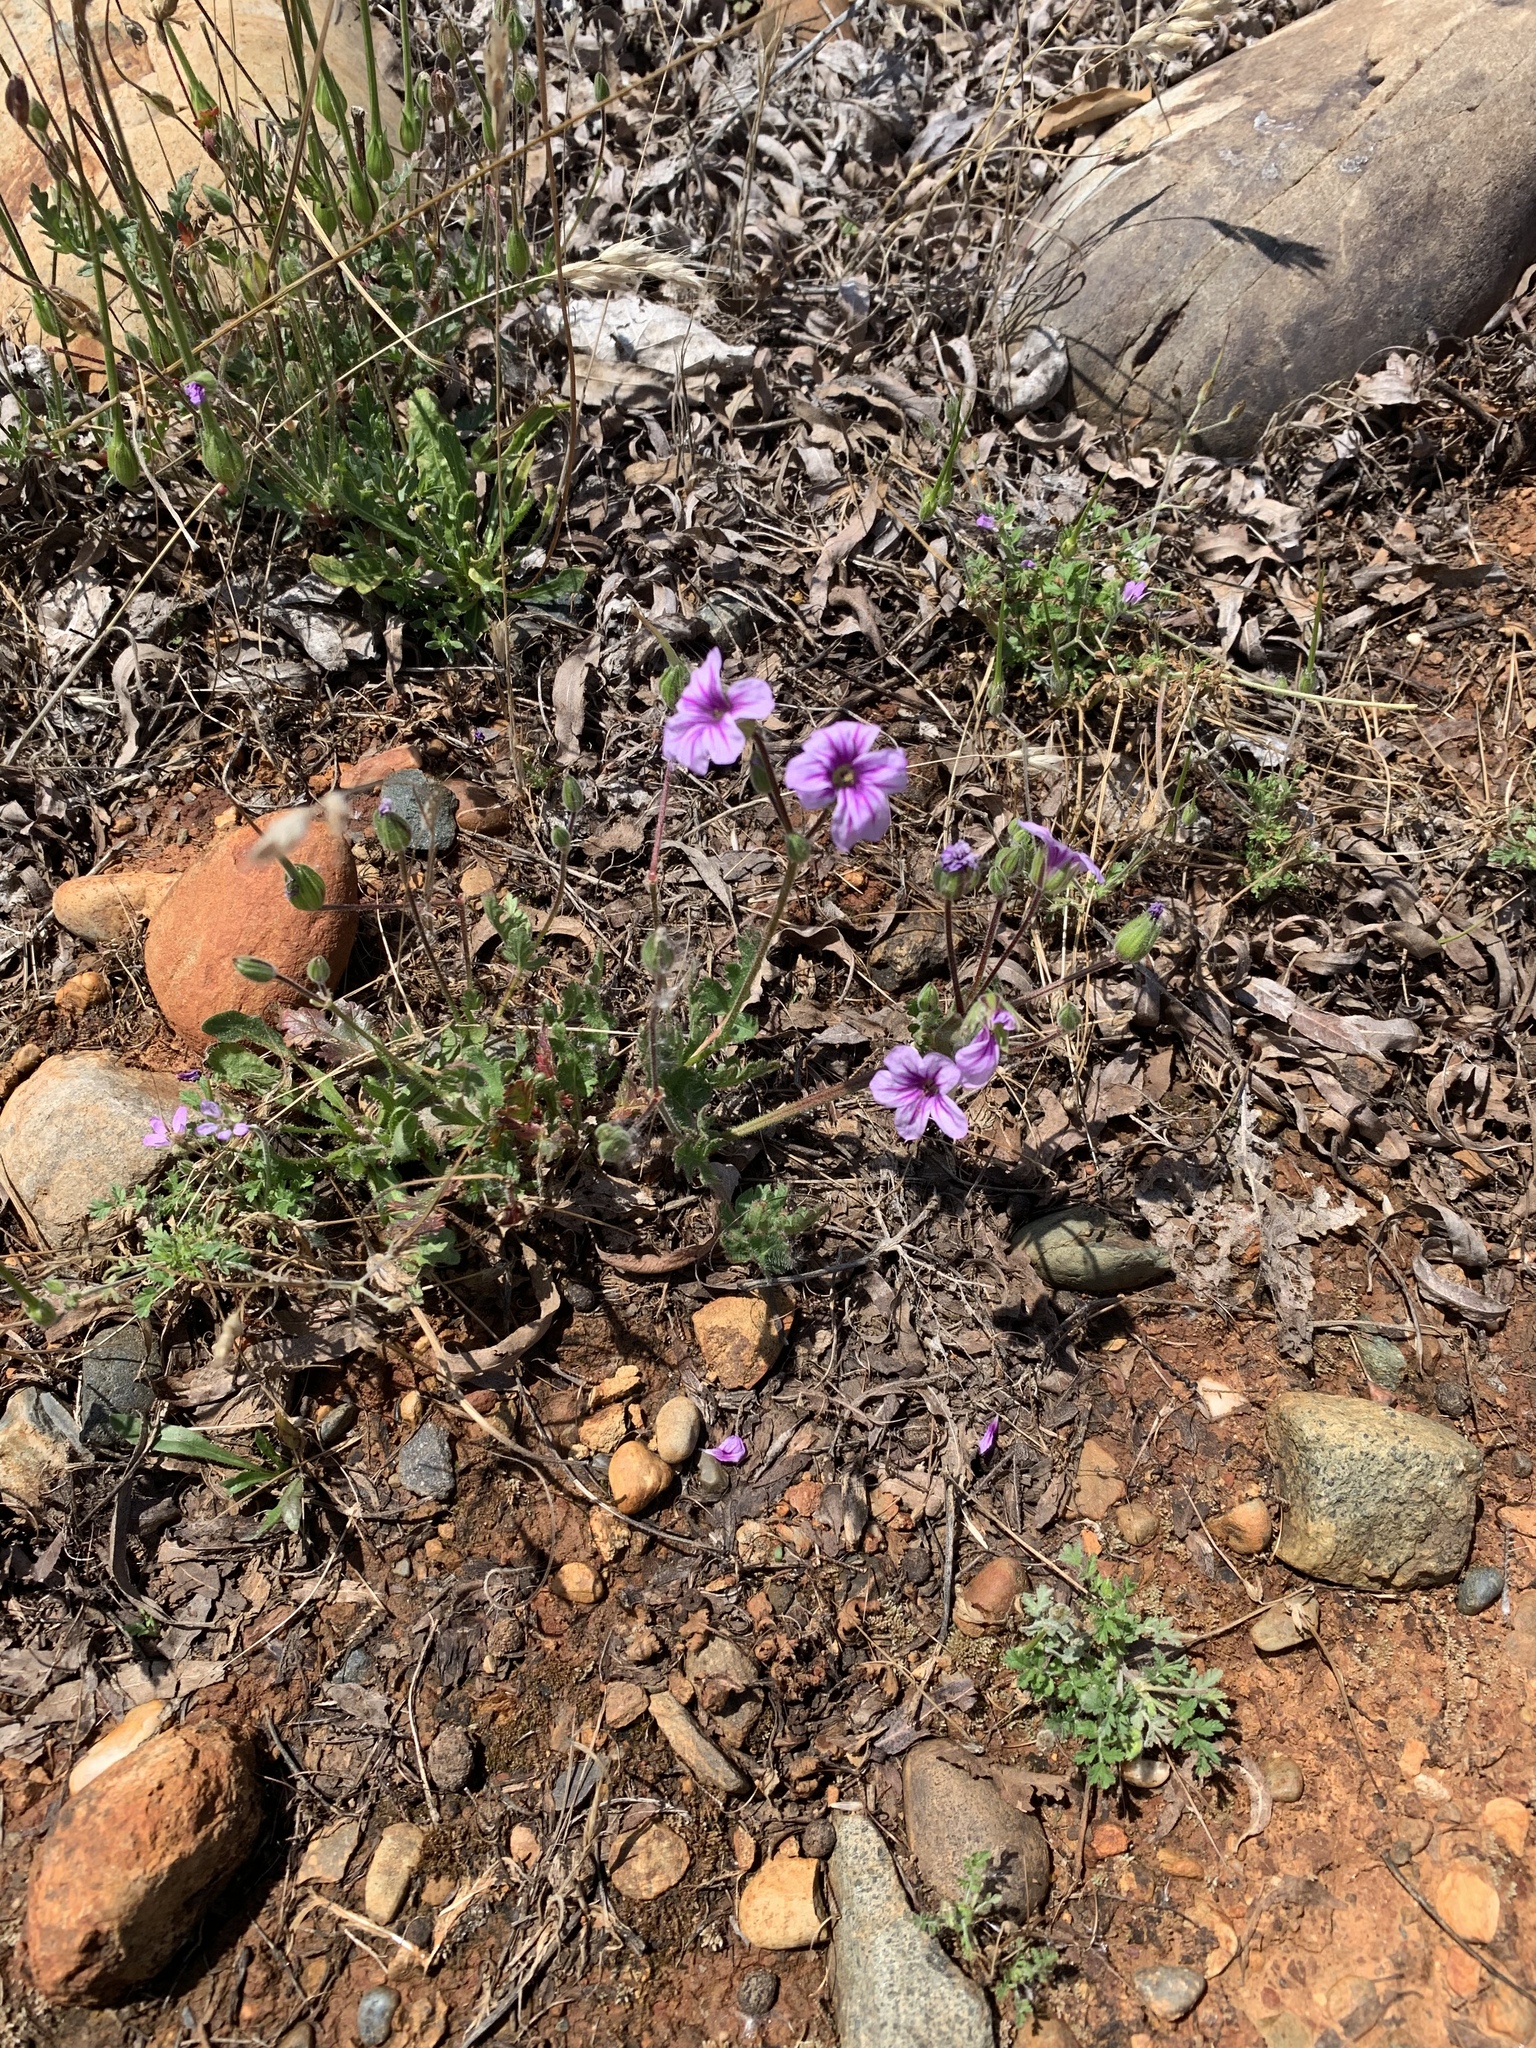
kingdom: Plantae
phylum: Tracheophyta
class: Magnoliopsida
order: Geraniales
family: Geraniaceae
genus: Erodium
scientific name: Erodium botrys
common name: Mediterranean stork's-bill
